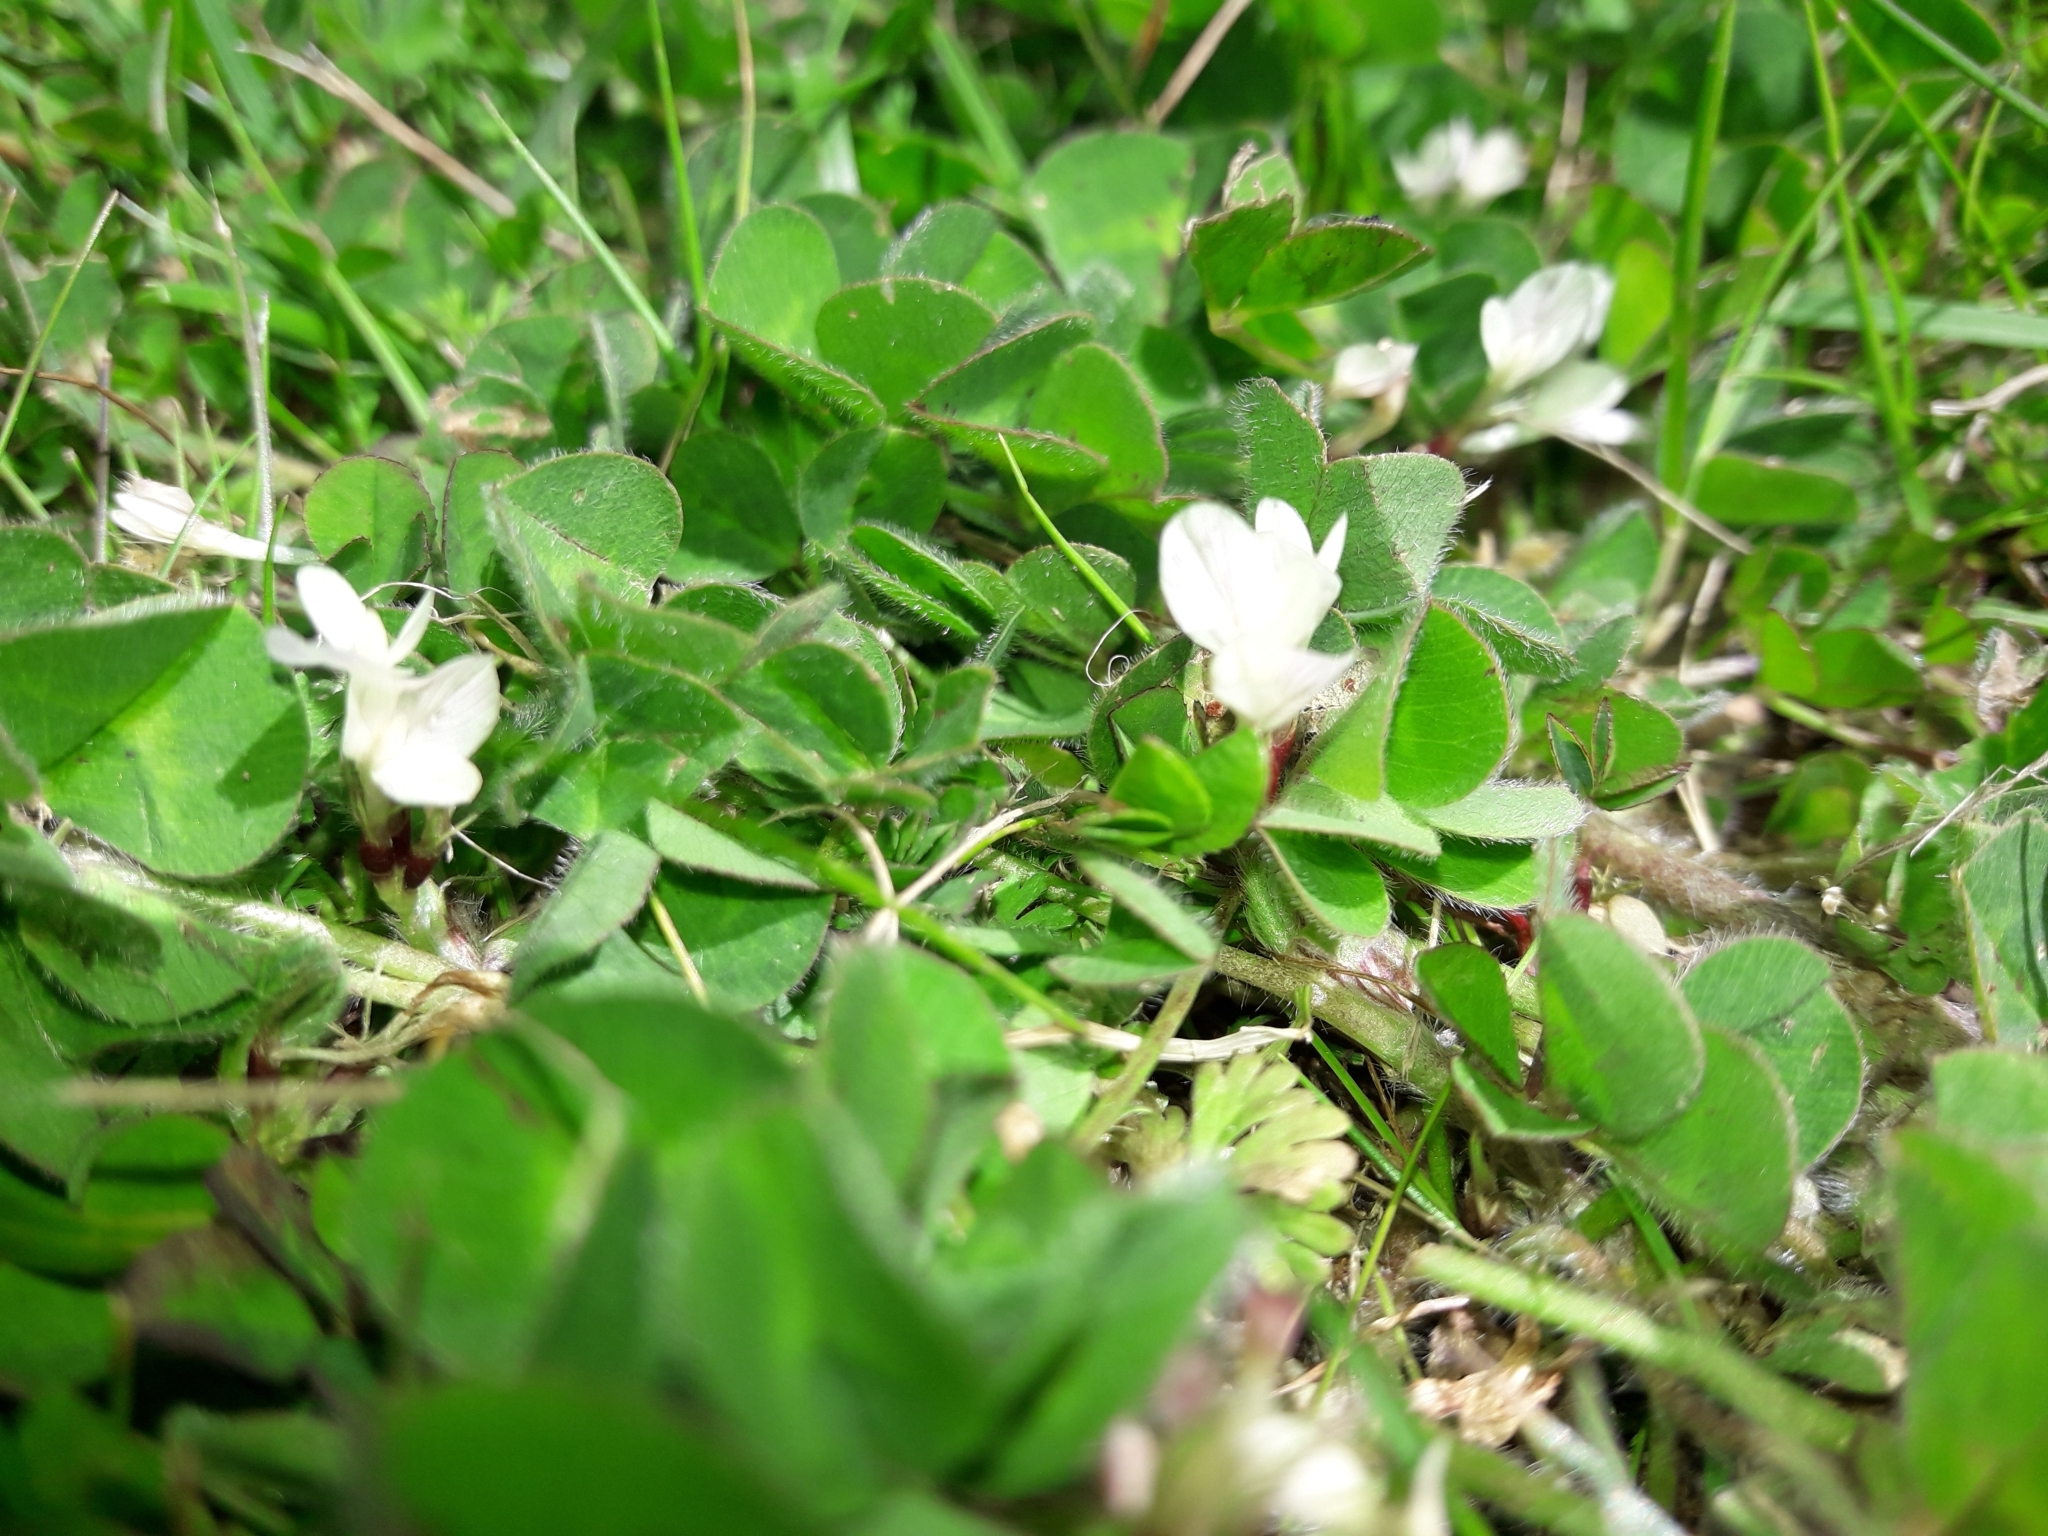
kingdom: Plantae
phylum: Tracheophyta
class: Magnoliopsida
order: Fabales
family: Fabaceae
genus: Trifolium
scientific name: Trifolium subterraneum
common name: Subterranean clover
